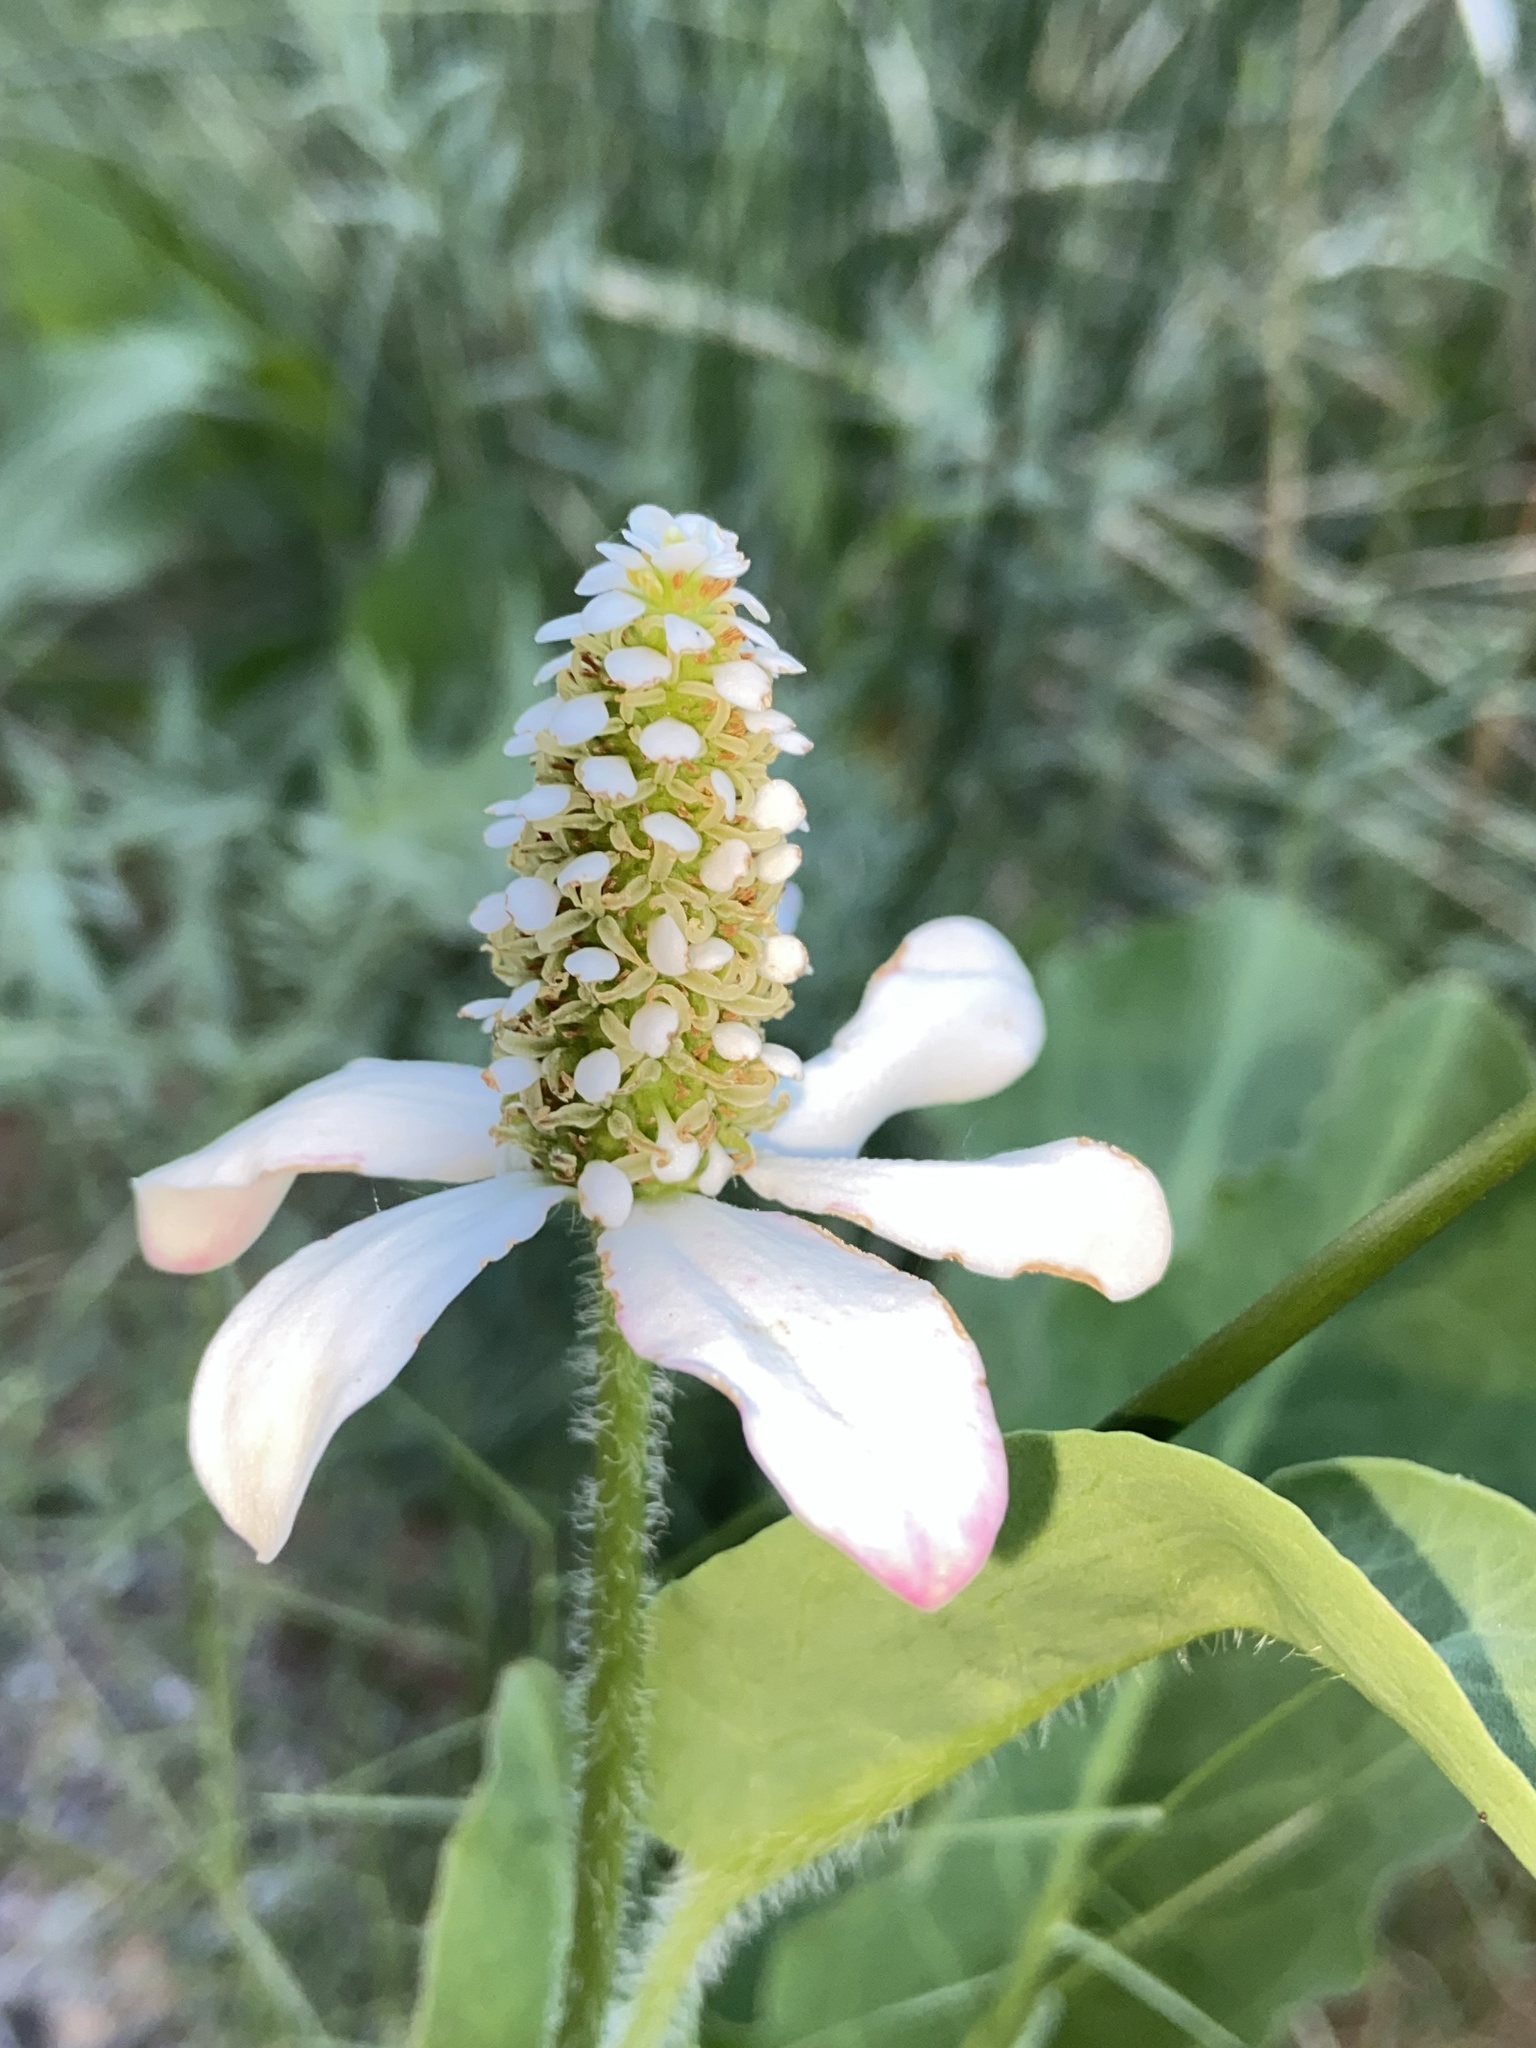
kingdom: Plantae
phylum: Tracheophyta
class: Magnoliopsida
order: Piperales
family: Saururaceae
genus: Anemopsis
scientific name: Anemopsis californica
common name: Apache-beads
